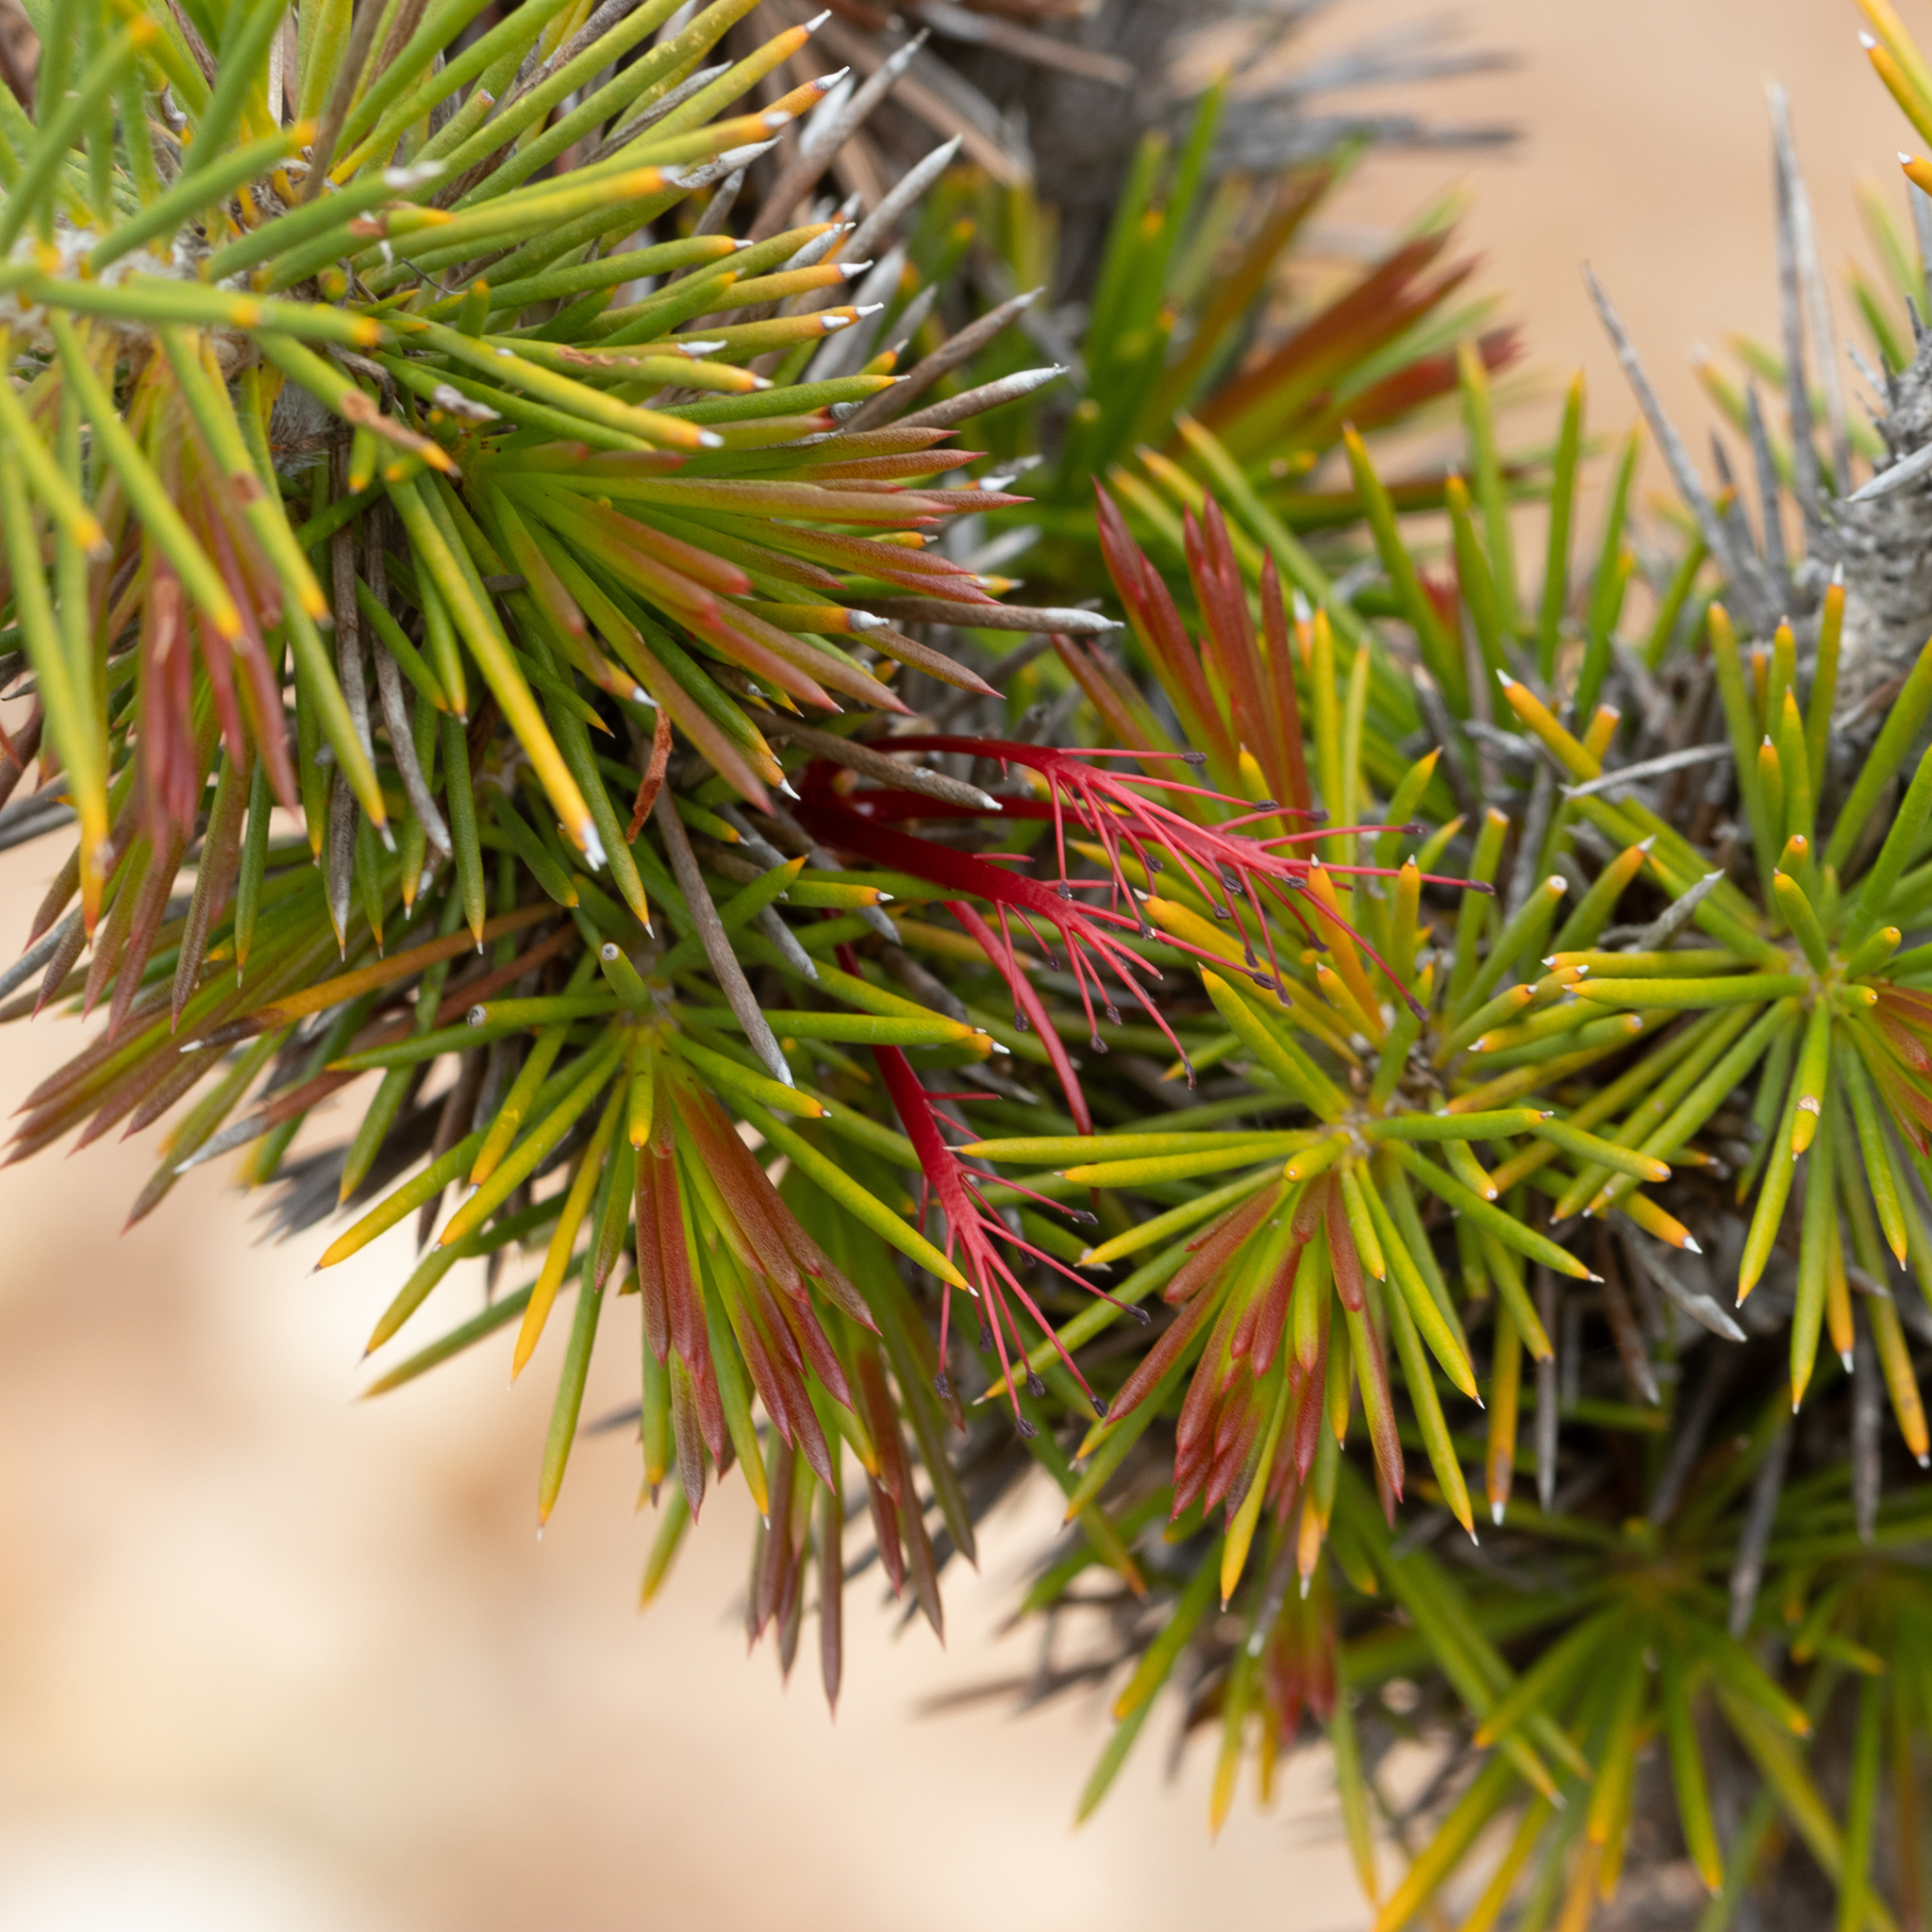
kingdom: Plantae
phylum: Tracheophyta
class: Magnoliopsida
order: Myrtales
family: Myrtaceae
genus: Melaleuca
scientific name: Melaleuca peucophylla
